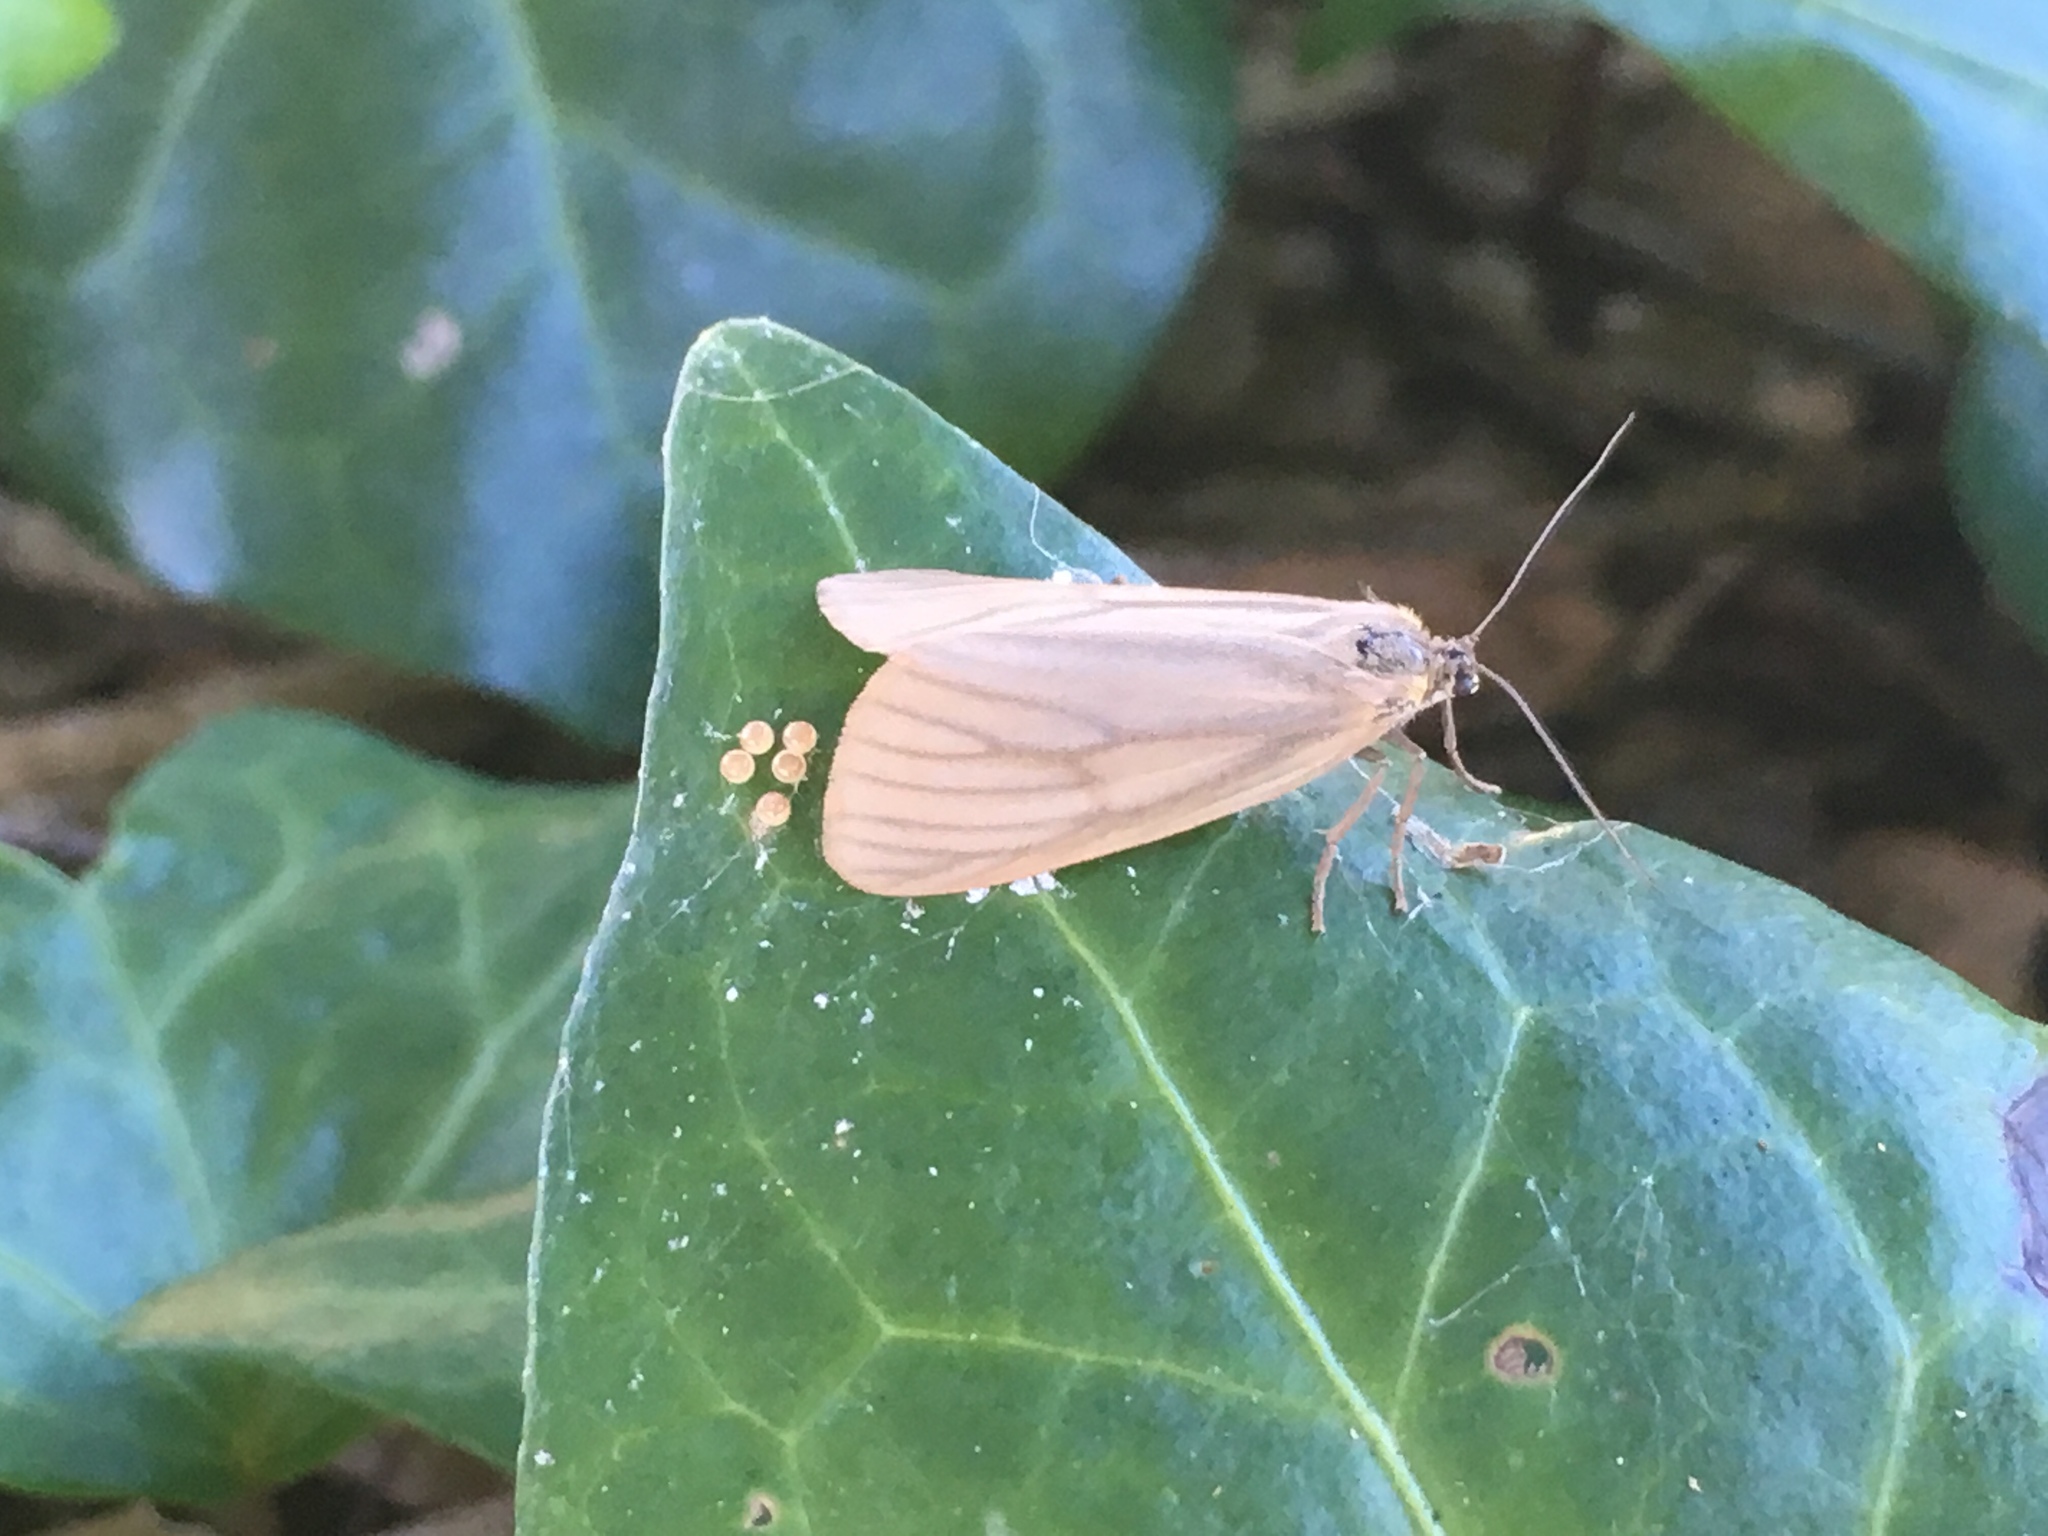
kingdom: Animalia
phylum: Arthropoda
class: Insecta
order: Lepidoptera
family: Notodontidae
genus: Phryganidia
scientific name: Phryganidia californica
